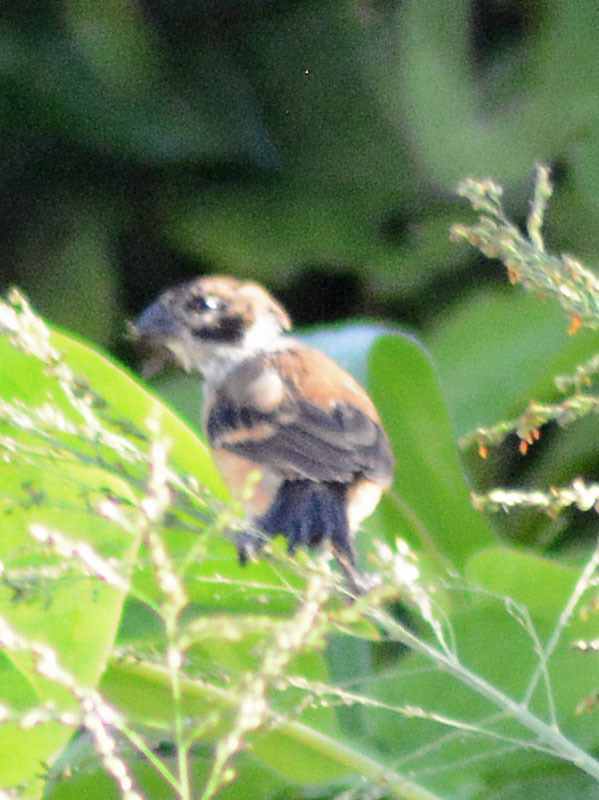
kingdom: Animalia
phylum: Chordata
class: Aves
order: Passeriformes
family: Thraupidae
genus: Sporophila
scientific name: Sporophila morelleti
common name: Morelet's seedeater
